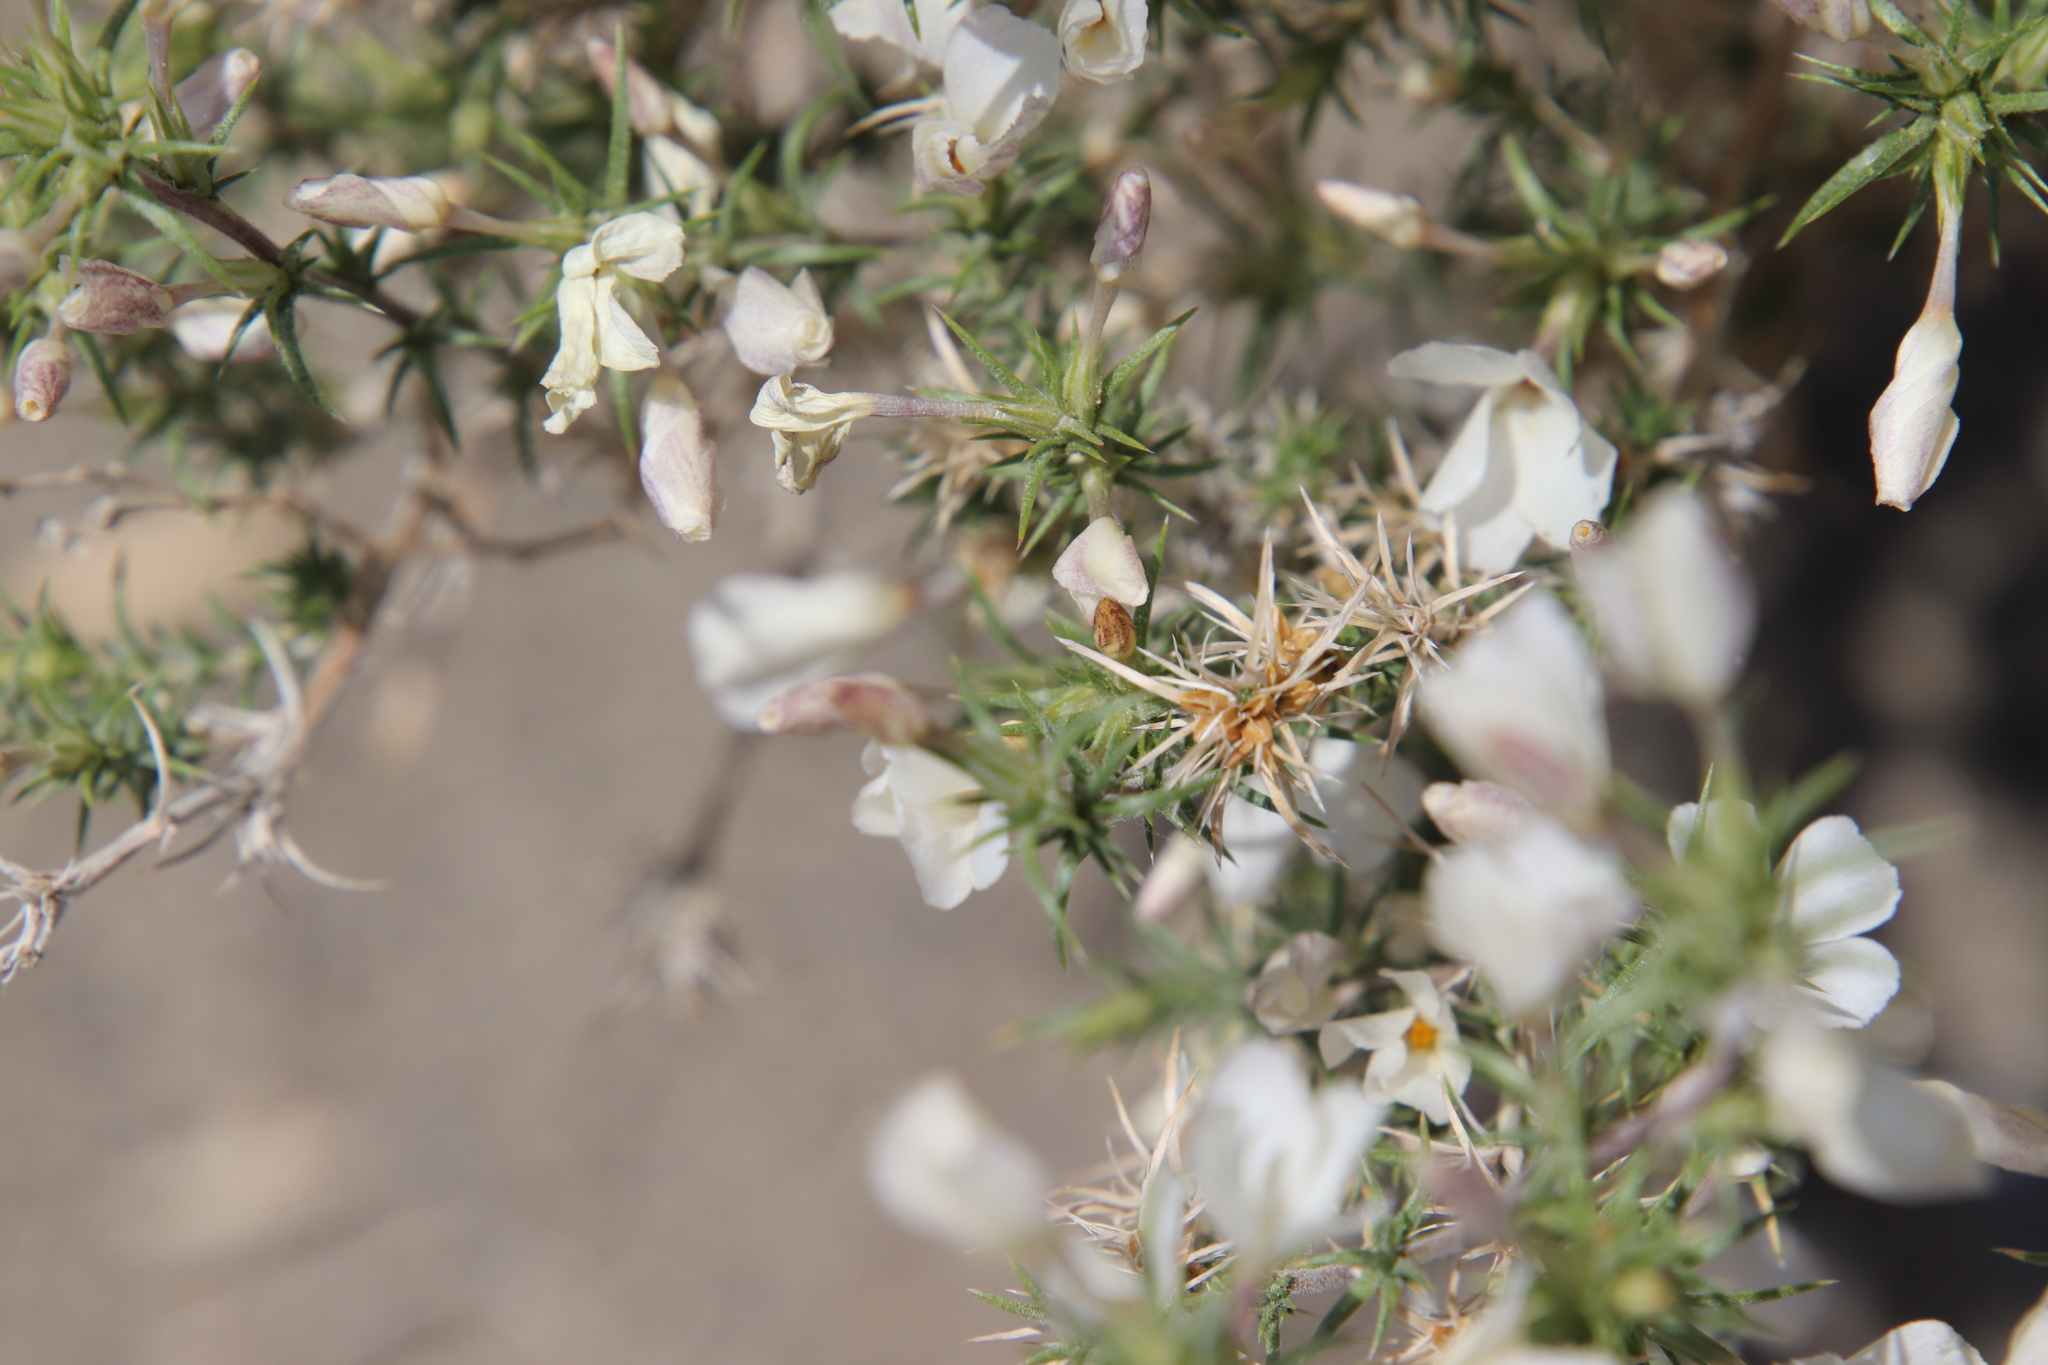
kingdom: Plantae
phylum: Tracheophyta
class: Magnoliopsida
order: Ericales
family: Polemoniaceae
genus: Linanthus
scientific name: Linanthus pungens
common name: Granite prickly phlox
